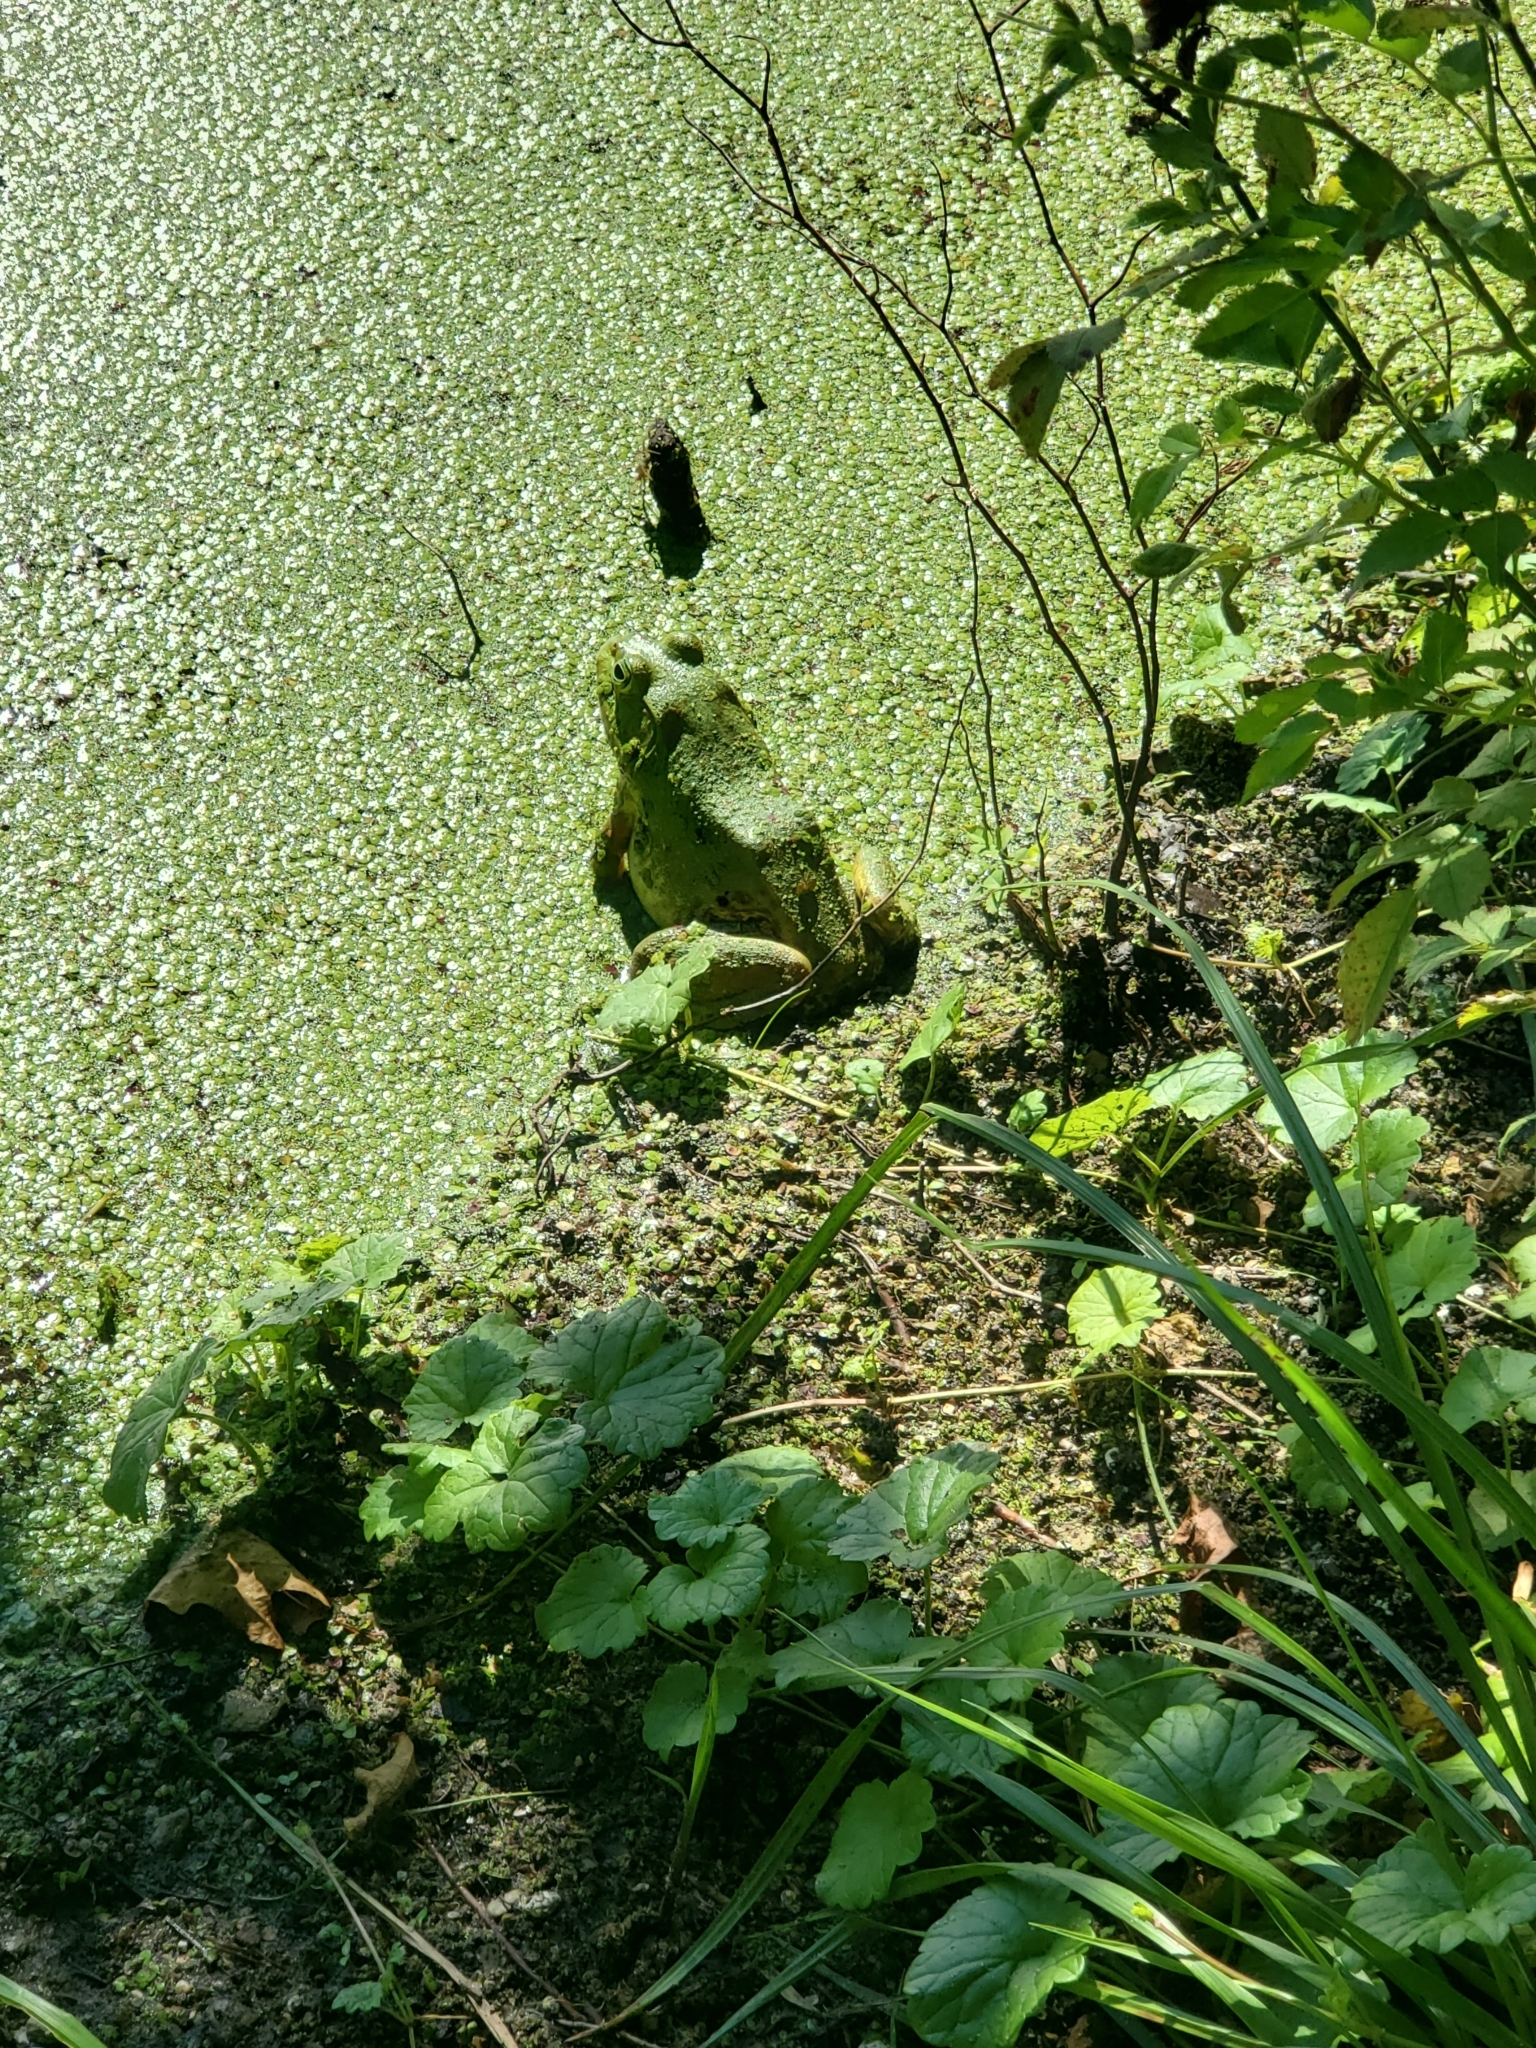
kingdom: Animalia
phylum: Chordata
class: Amphibia
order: Anura
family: Ranidae
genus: Lithobates
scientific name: Lithobates catesbeianus
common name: American bullfrog
